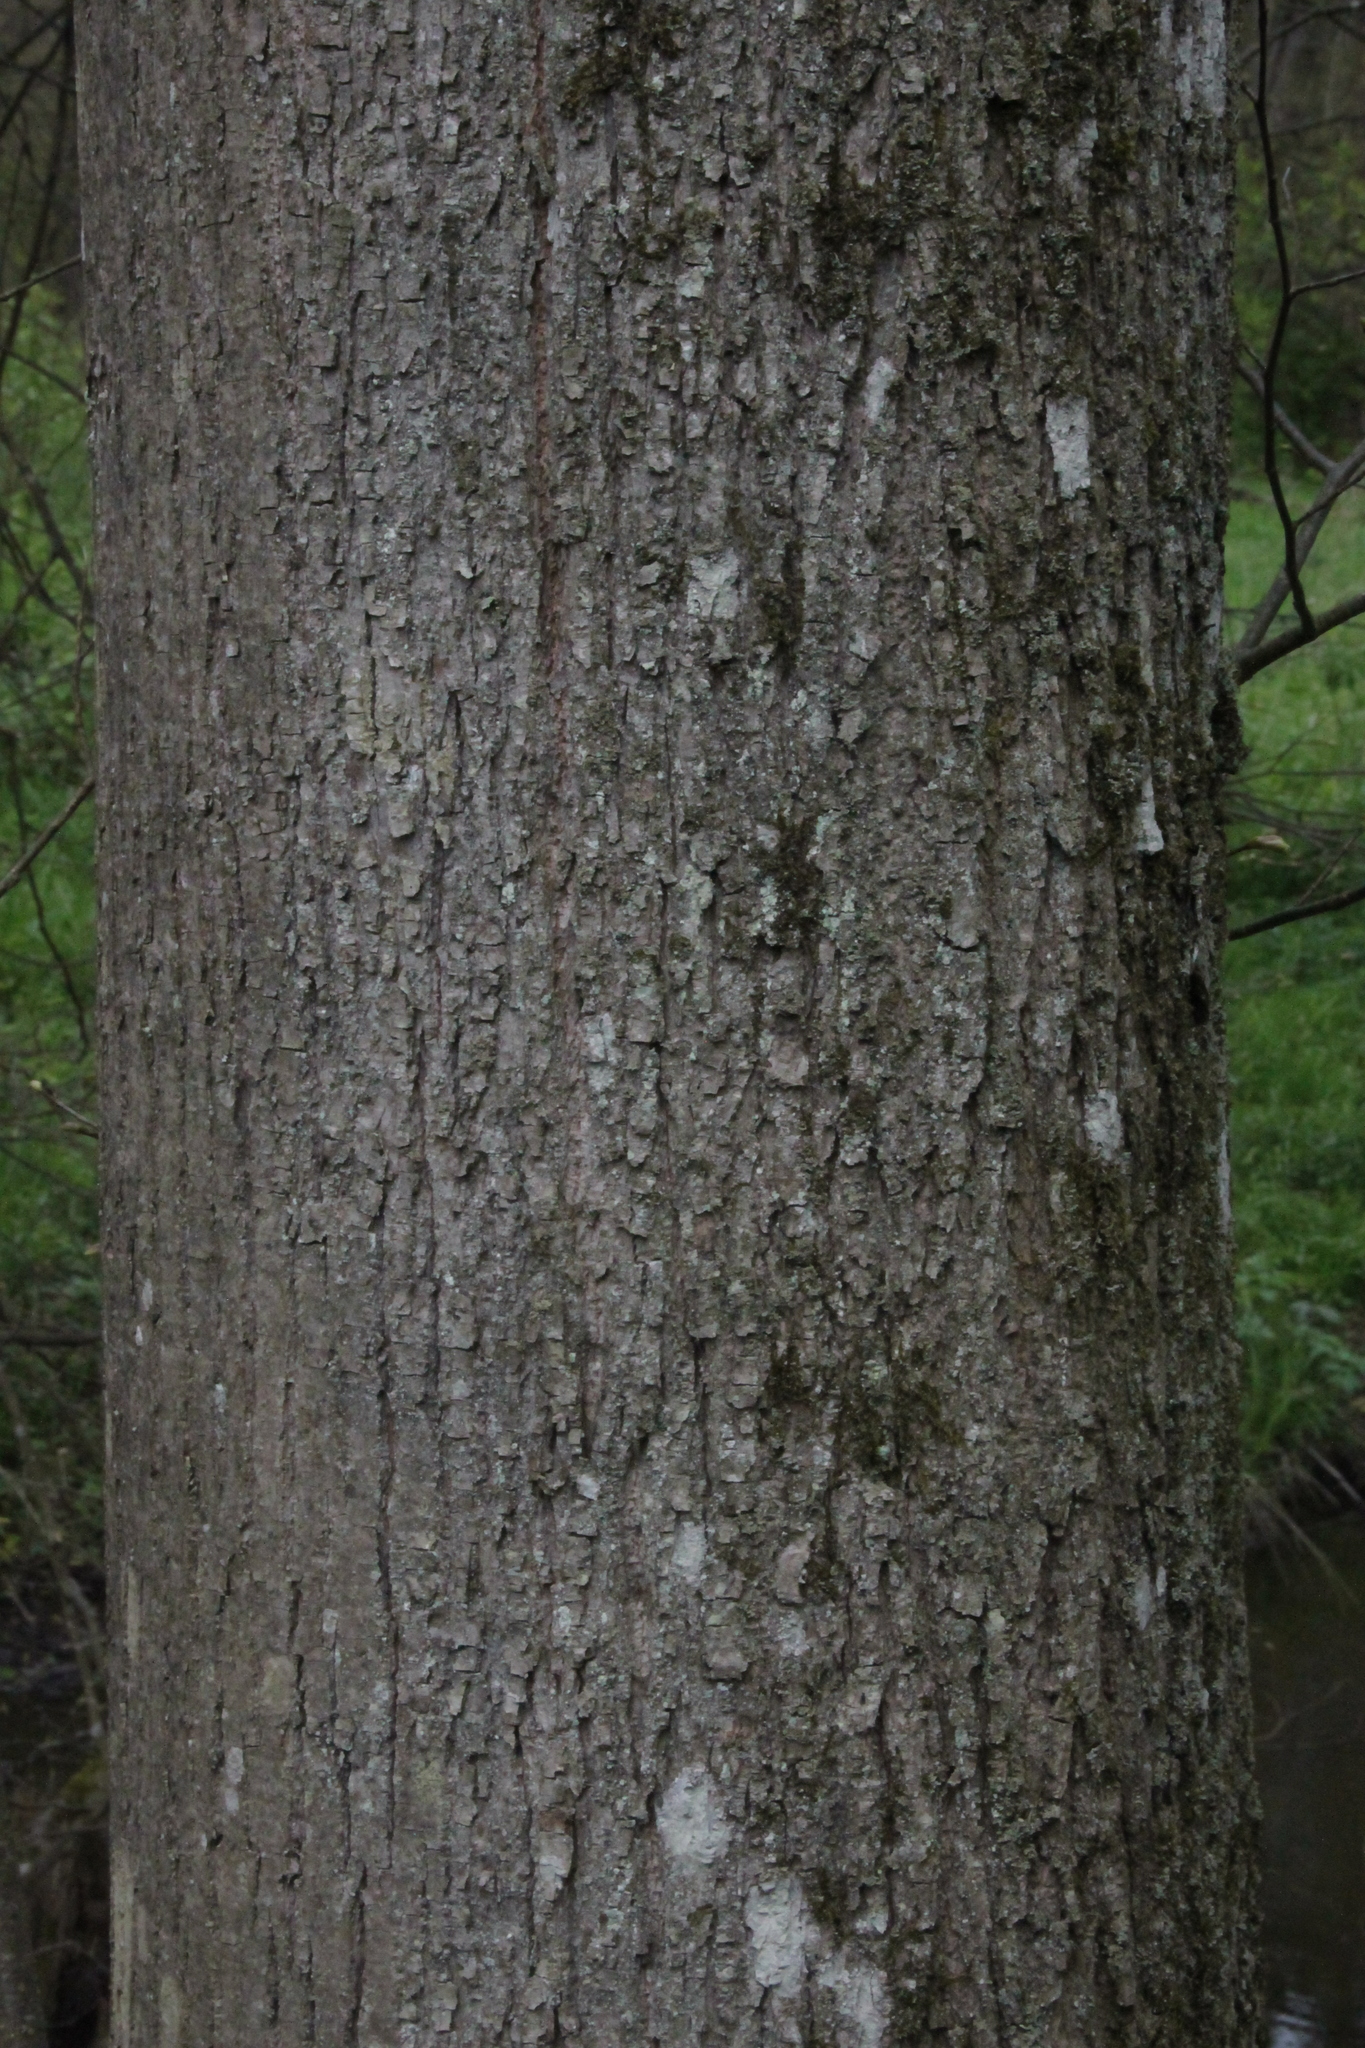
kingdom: Plantae
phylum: Tracheophyta
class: Magnoliopsida
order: Malvales
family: Malvaceae
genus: Tilia
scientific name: Tilia cordata
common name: Small-leaved lime
